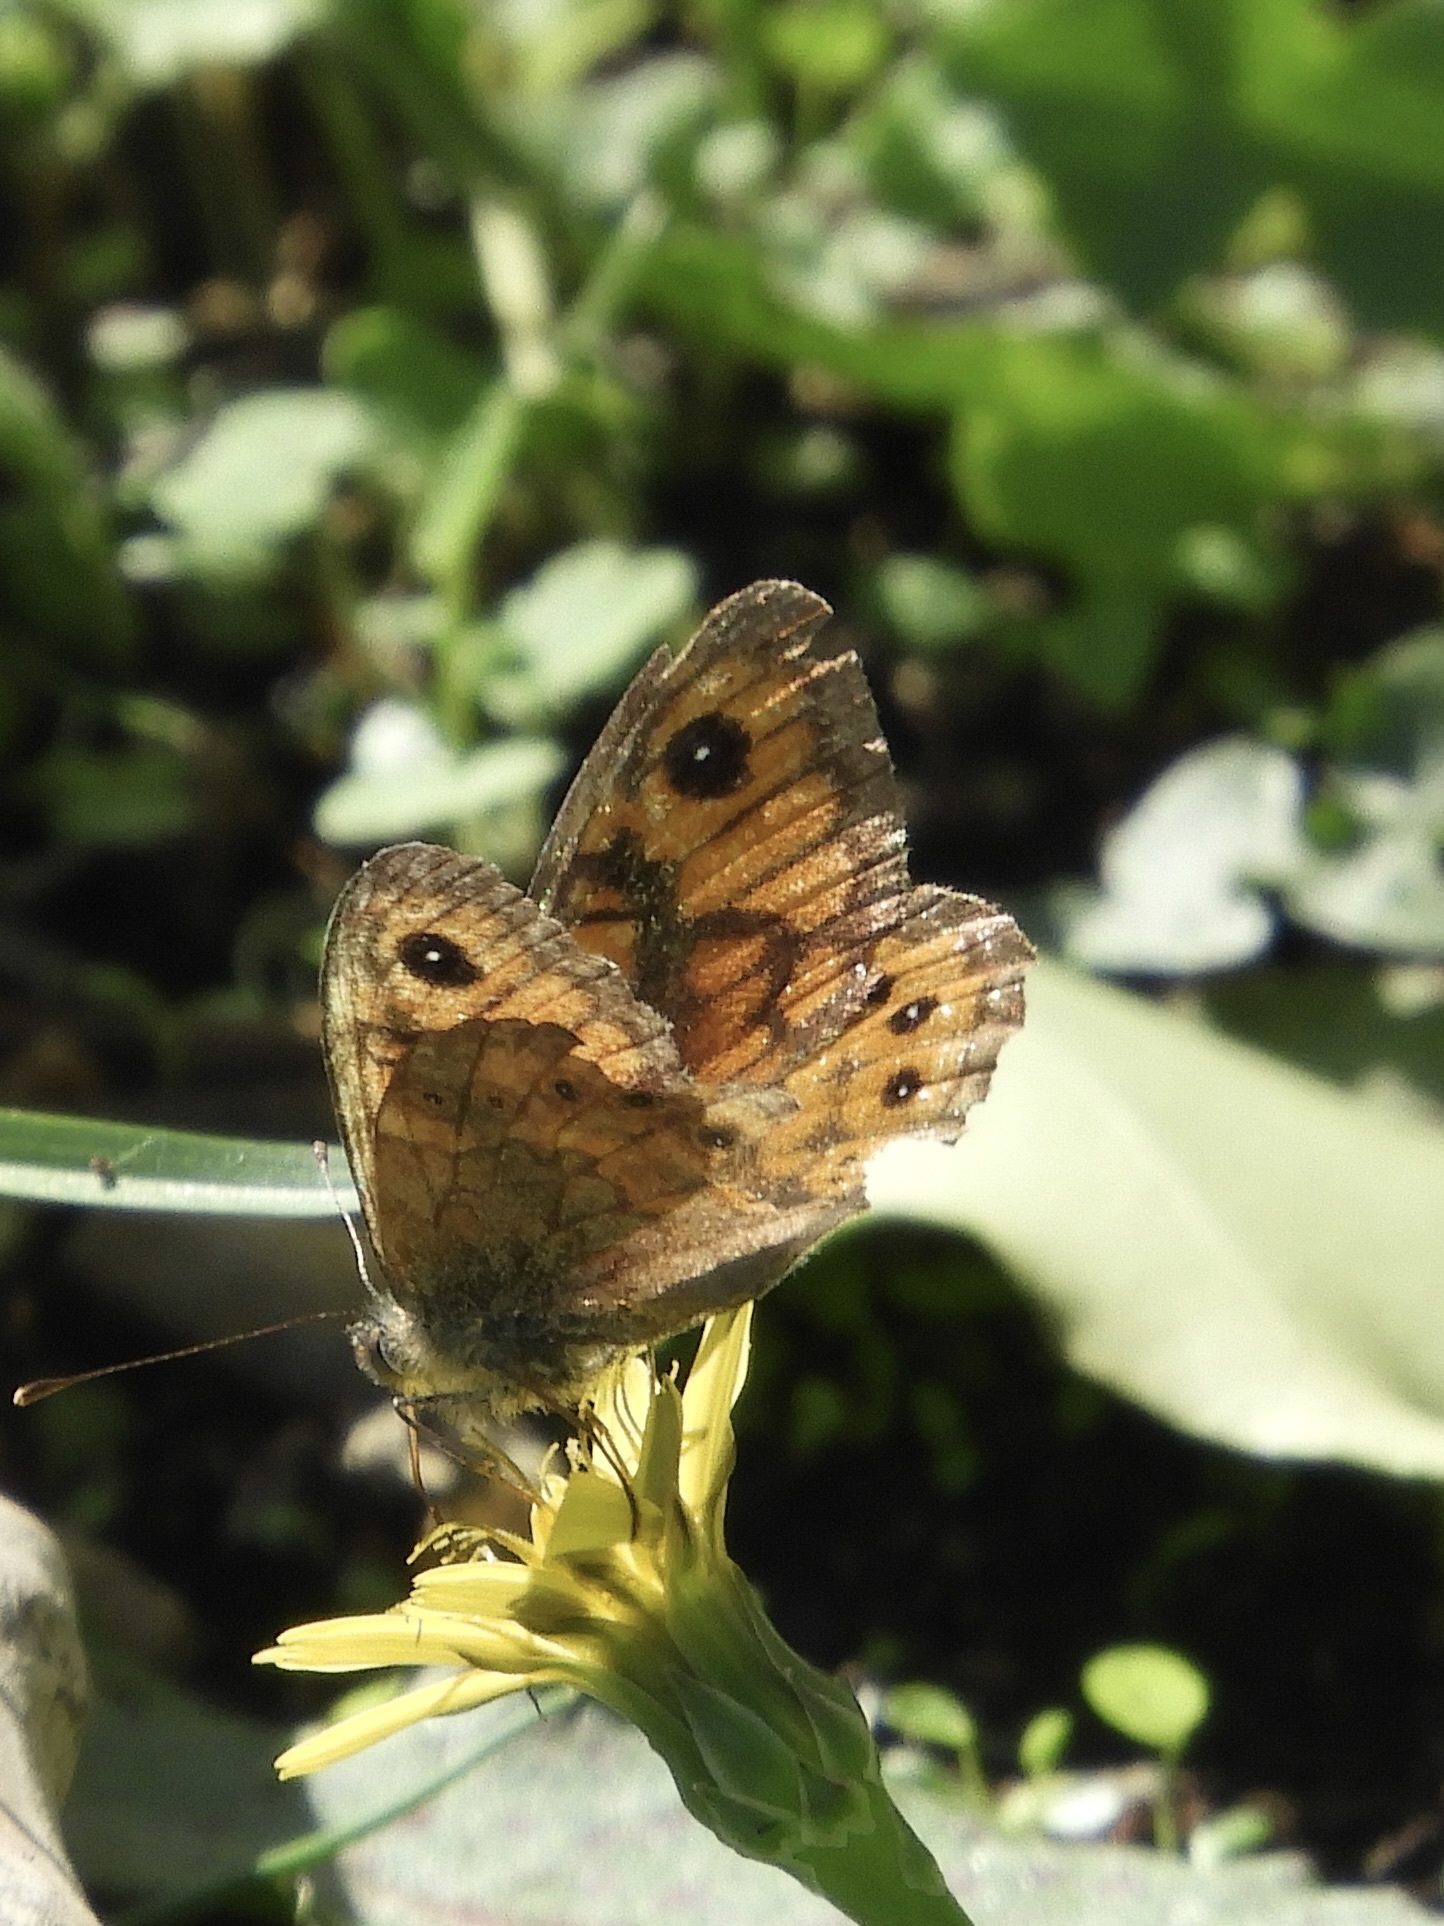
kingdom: Animalia
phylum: Arthropoda
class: Insecta
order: Lepidoptera
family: Nymphalidae
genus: Pararge
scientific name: Pararge Lasiommata megera
